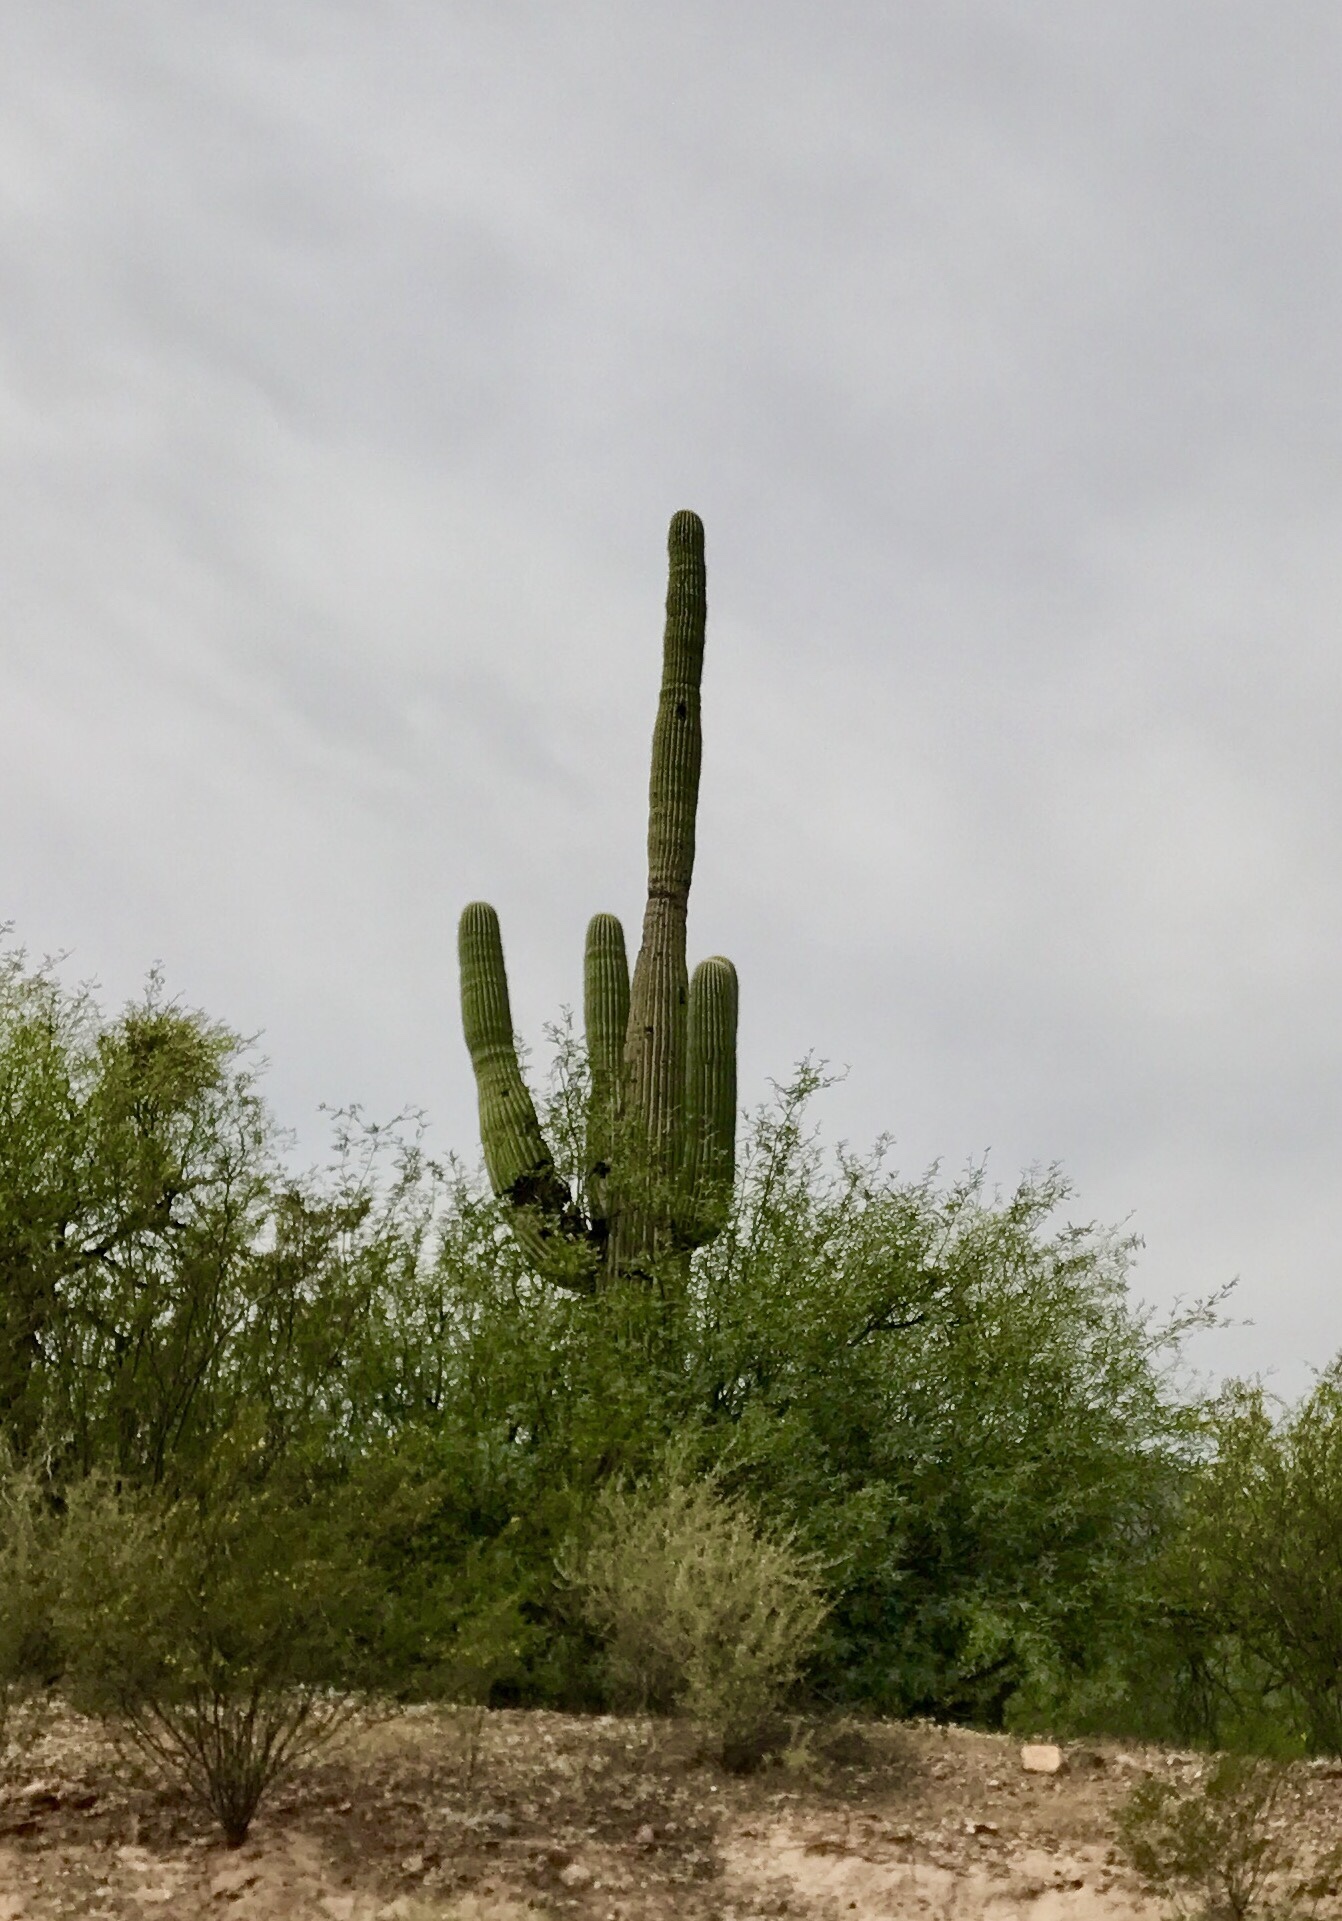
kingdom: Plantae
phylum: Tracheophyta
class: Magnoliopsida
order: Caryophyllales
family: Cactaceae
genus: Carnegiea
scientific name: Carnegiea gigantea
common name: Saguaro
